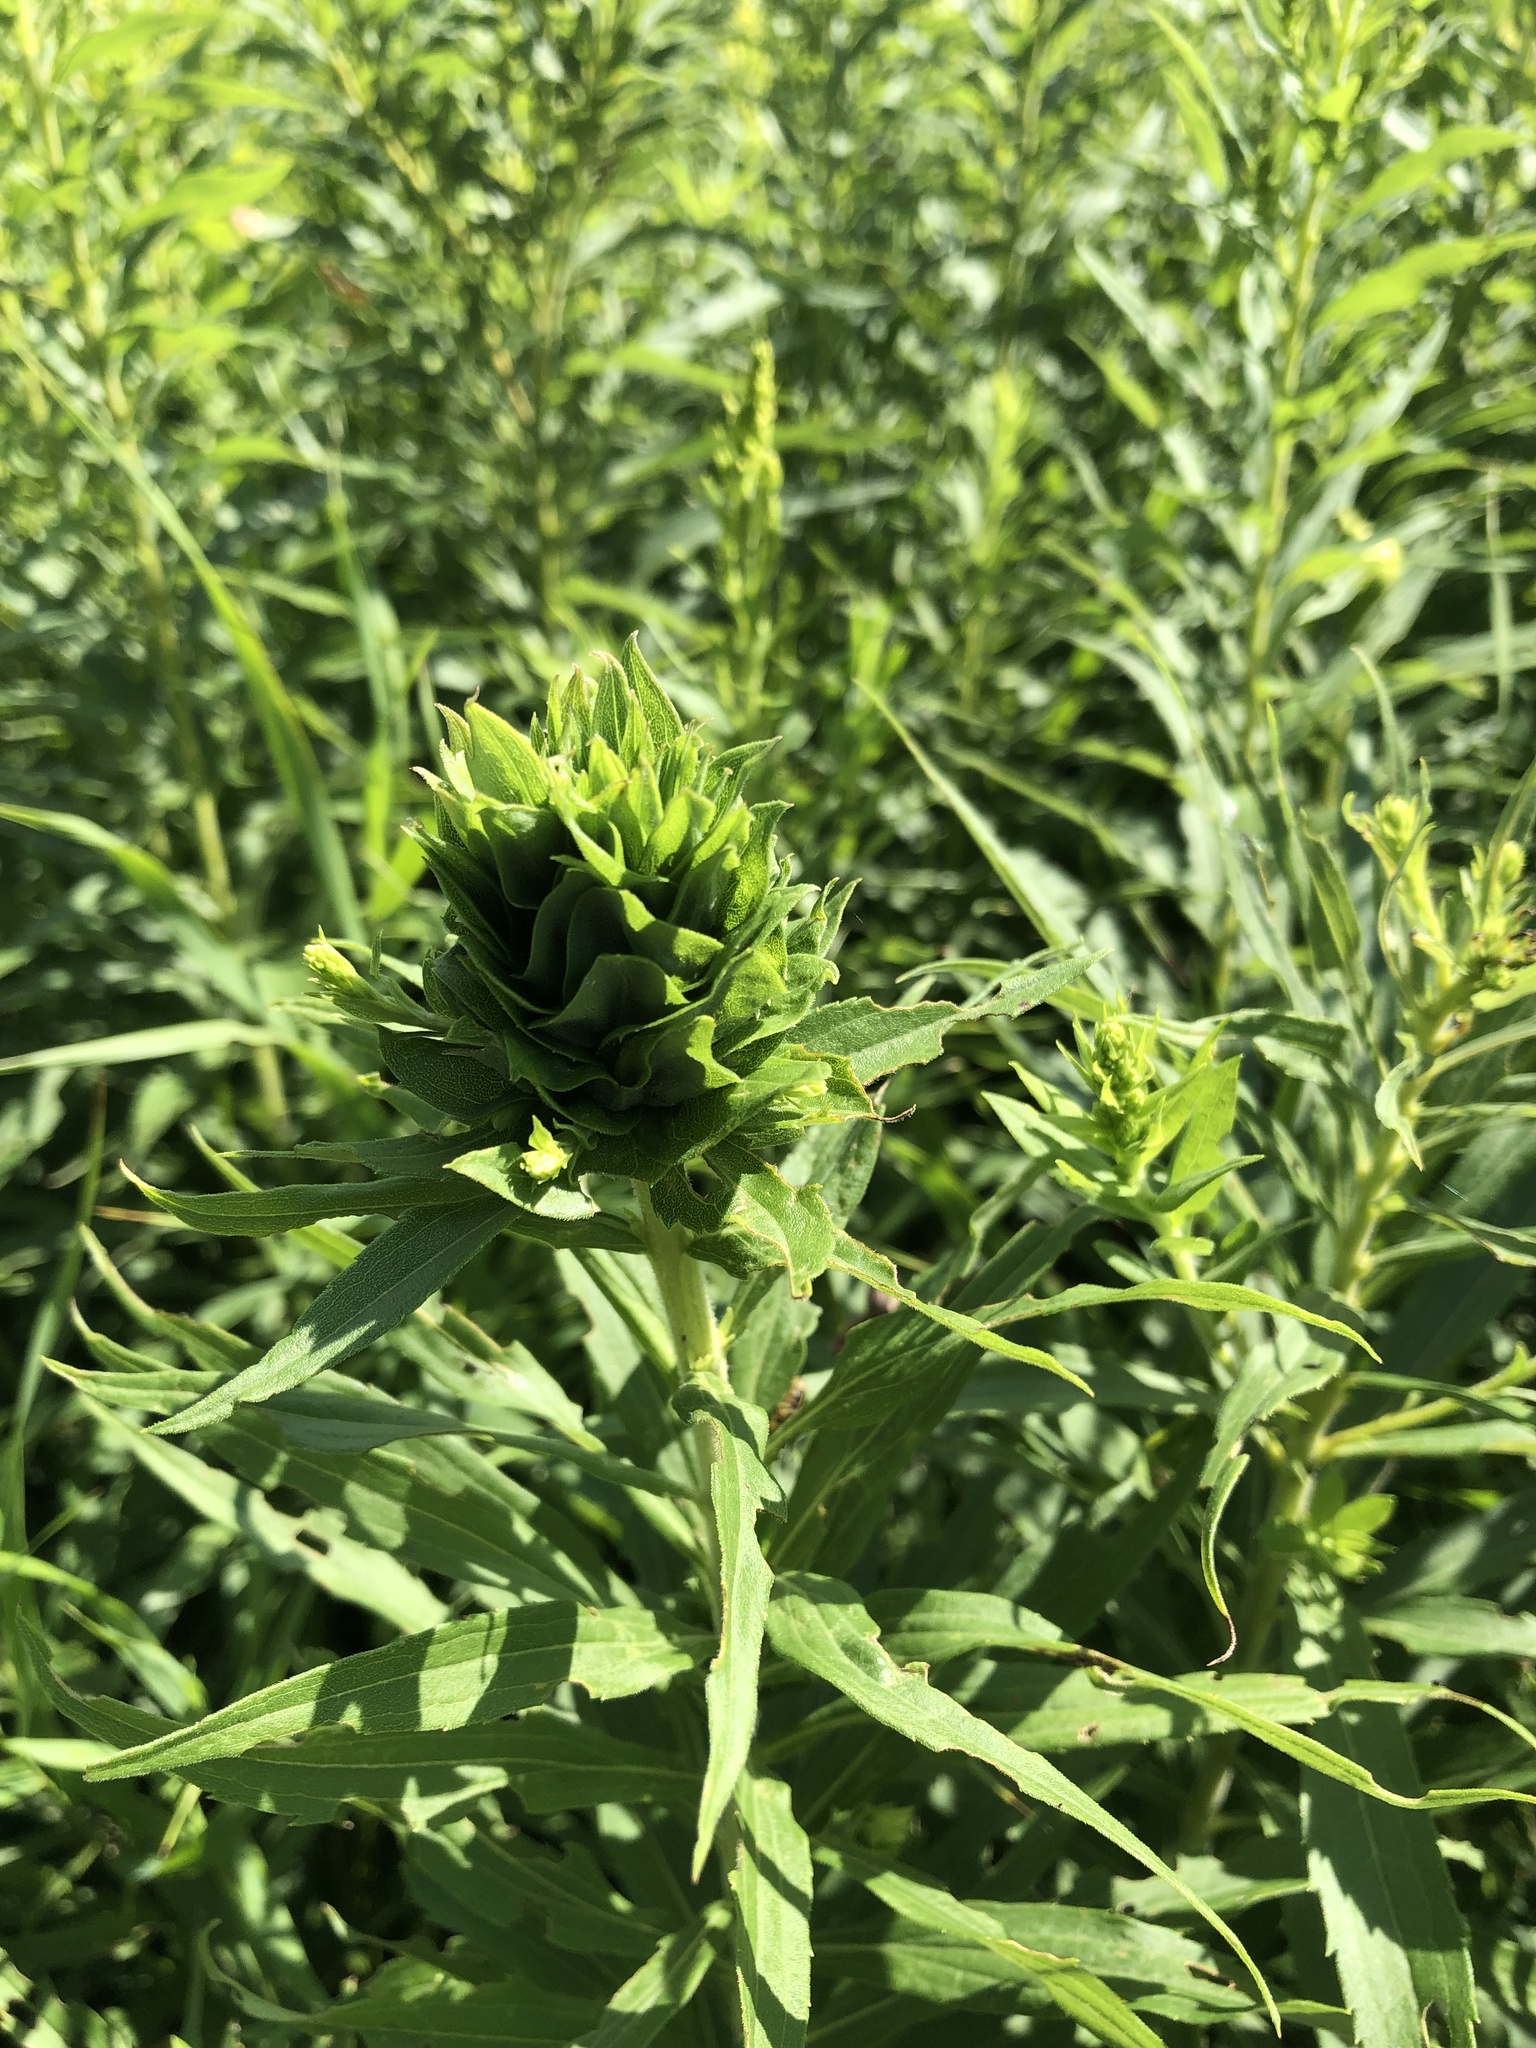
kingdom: Animalia
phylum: Arthropoda
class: Insecta
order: Diptera
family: Cecidomyiidae
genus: Rhopalomyia
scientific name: Rhopalomyia solidaginis
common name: Goldenrod bunch gall midge
